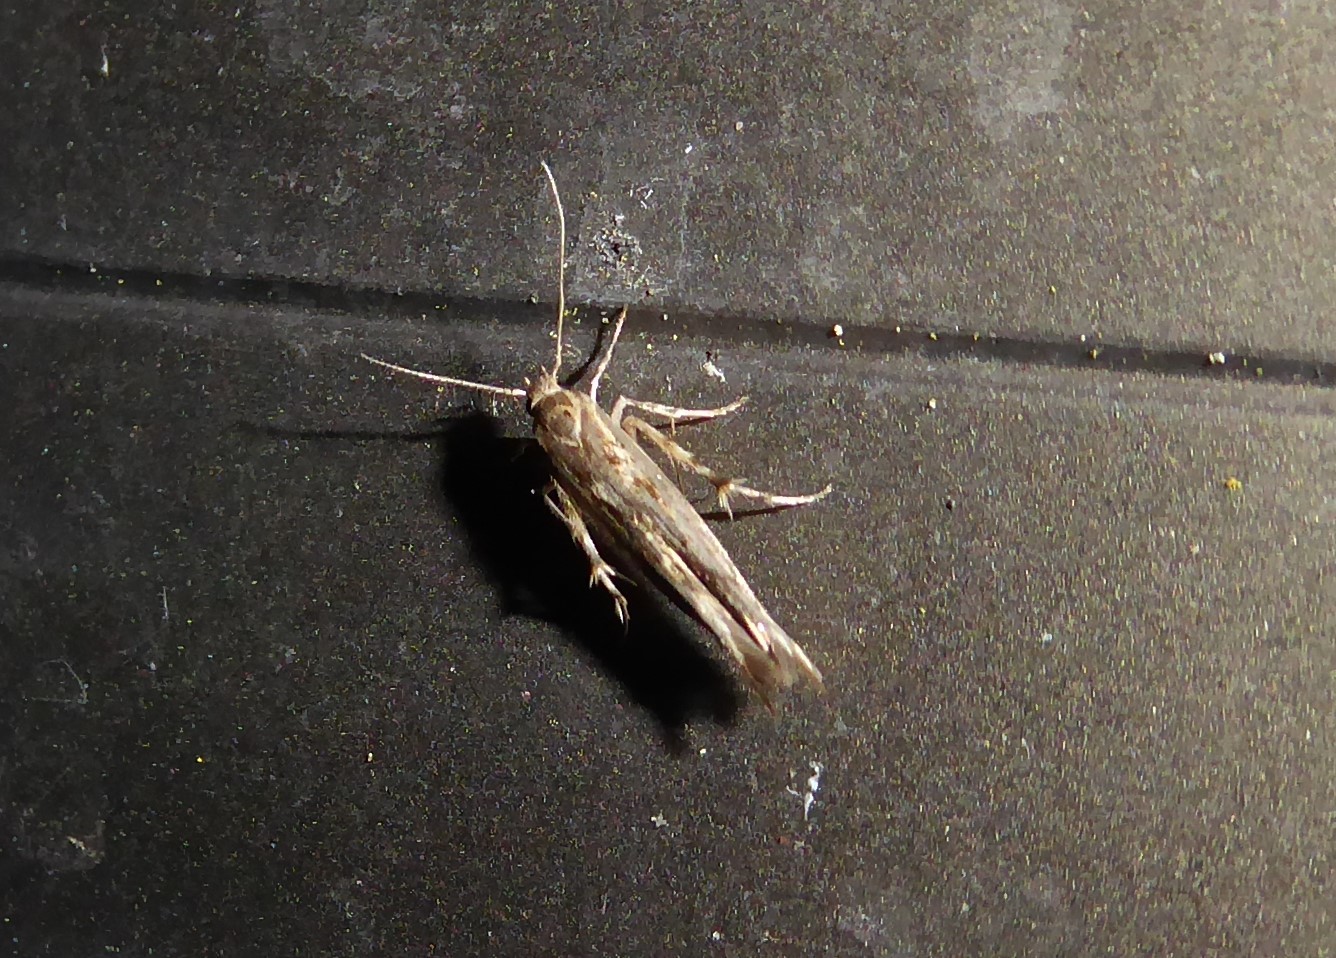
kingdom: Animalia
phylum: Arthropoda
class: Insecta
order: Lepidoptera
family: Stathmopodidae
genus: Stathmopoda
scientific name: Stathmopoda plumbiflua
